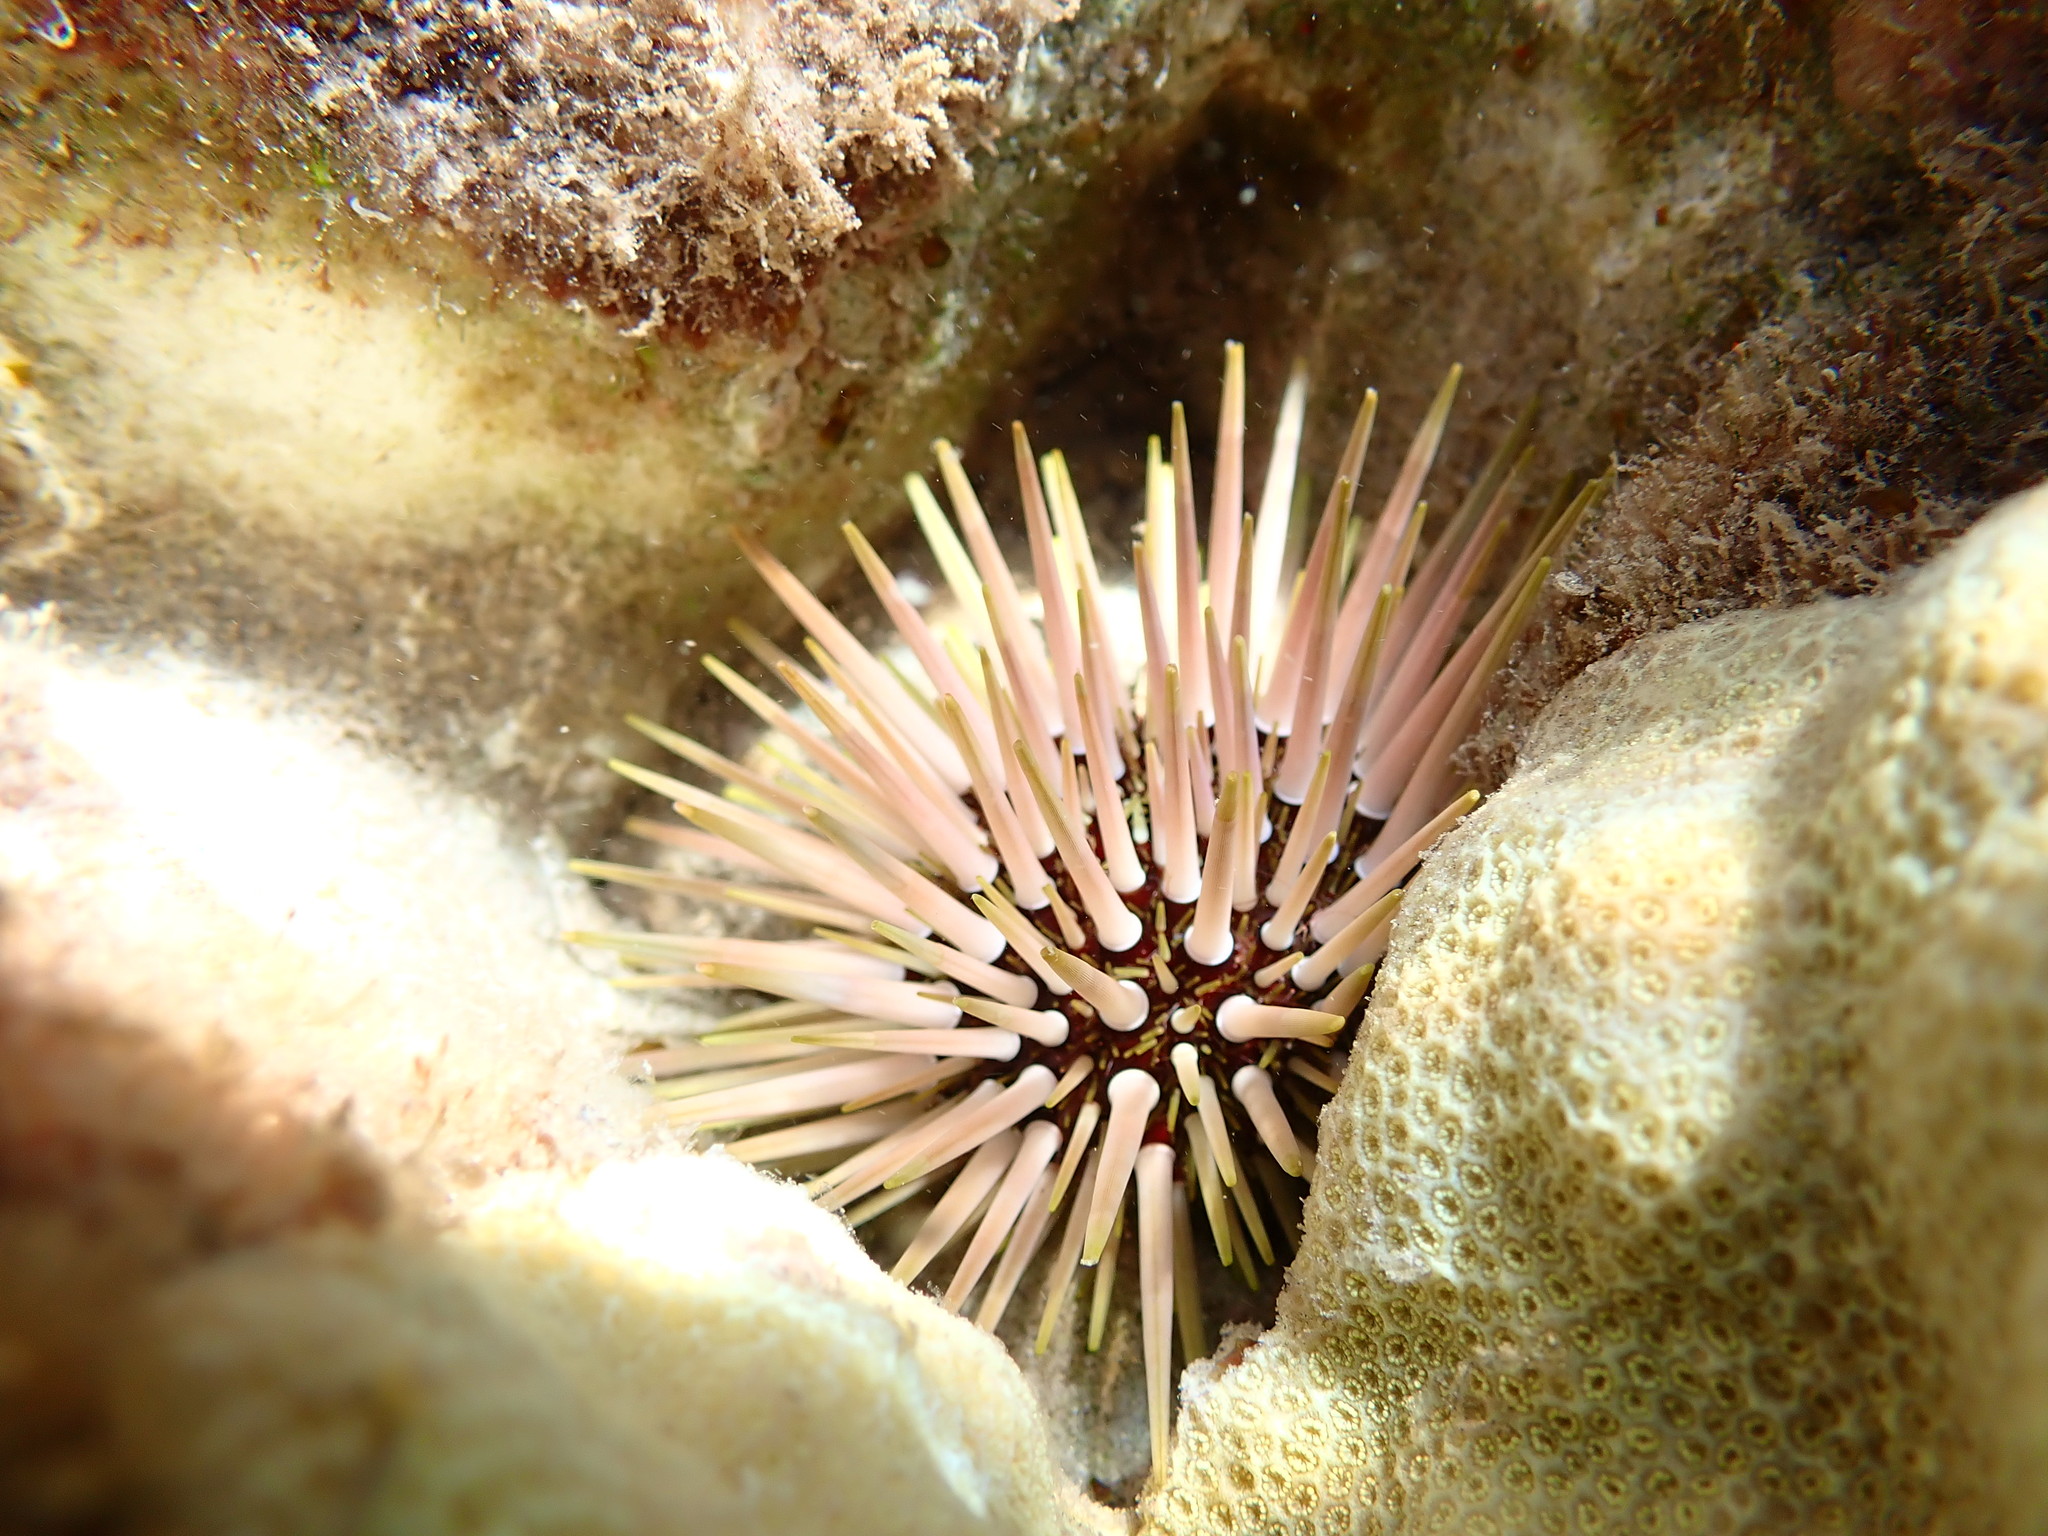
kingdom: Animalia
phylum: Echinodermata
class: Echinoidea
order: Camarodonta
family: Echinometridae
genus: Echinometra
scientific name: Echinometra mathaei
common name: Rock-boring urchin
